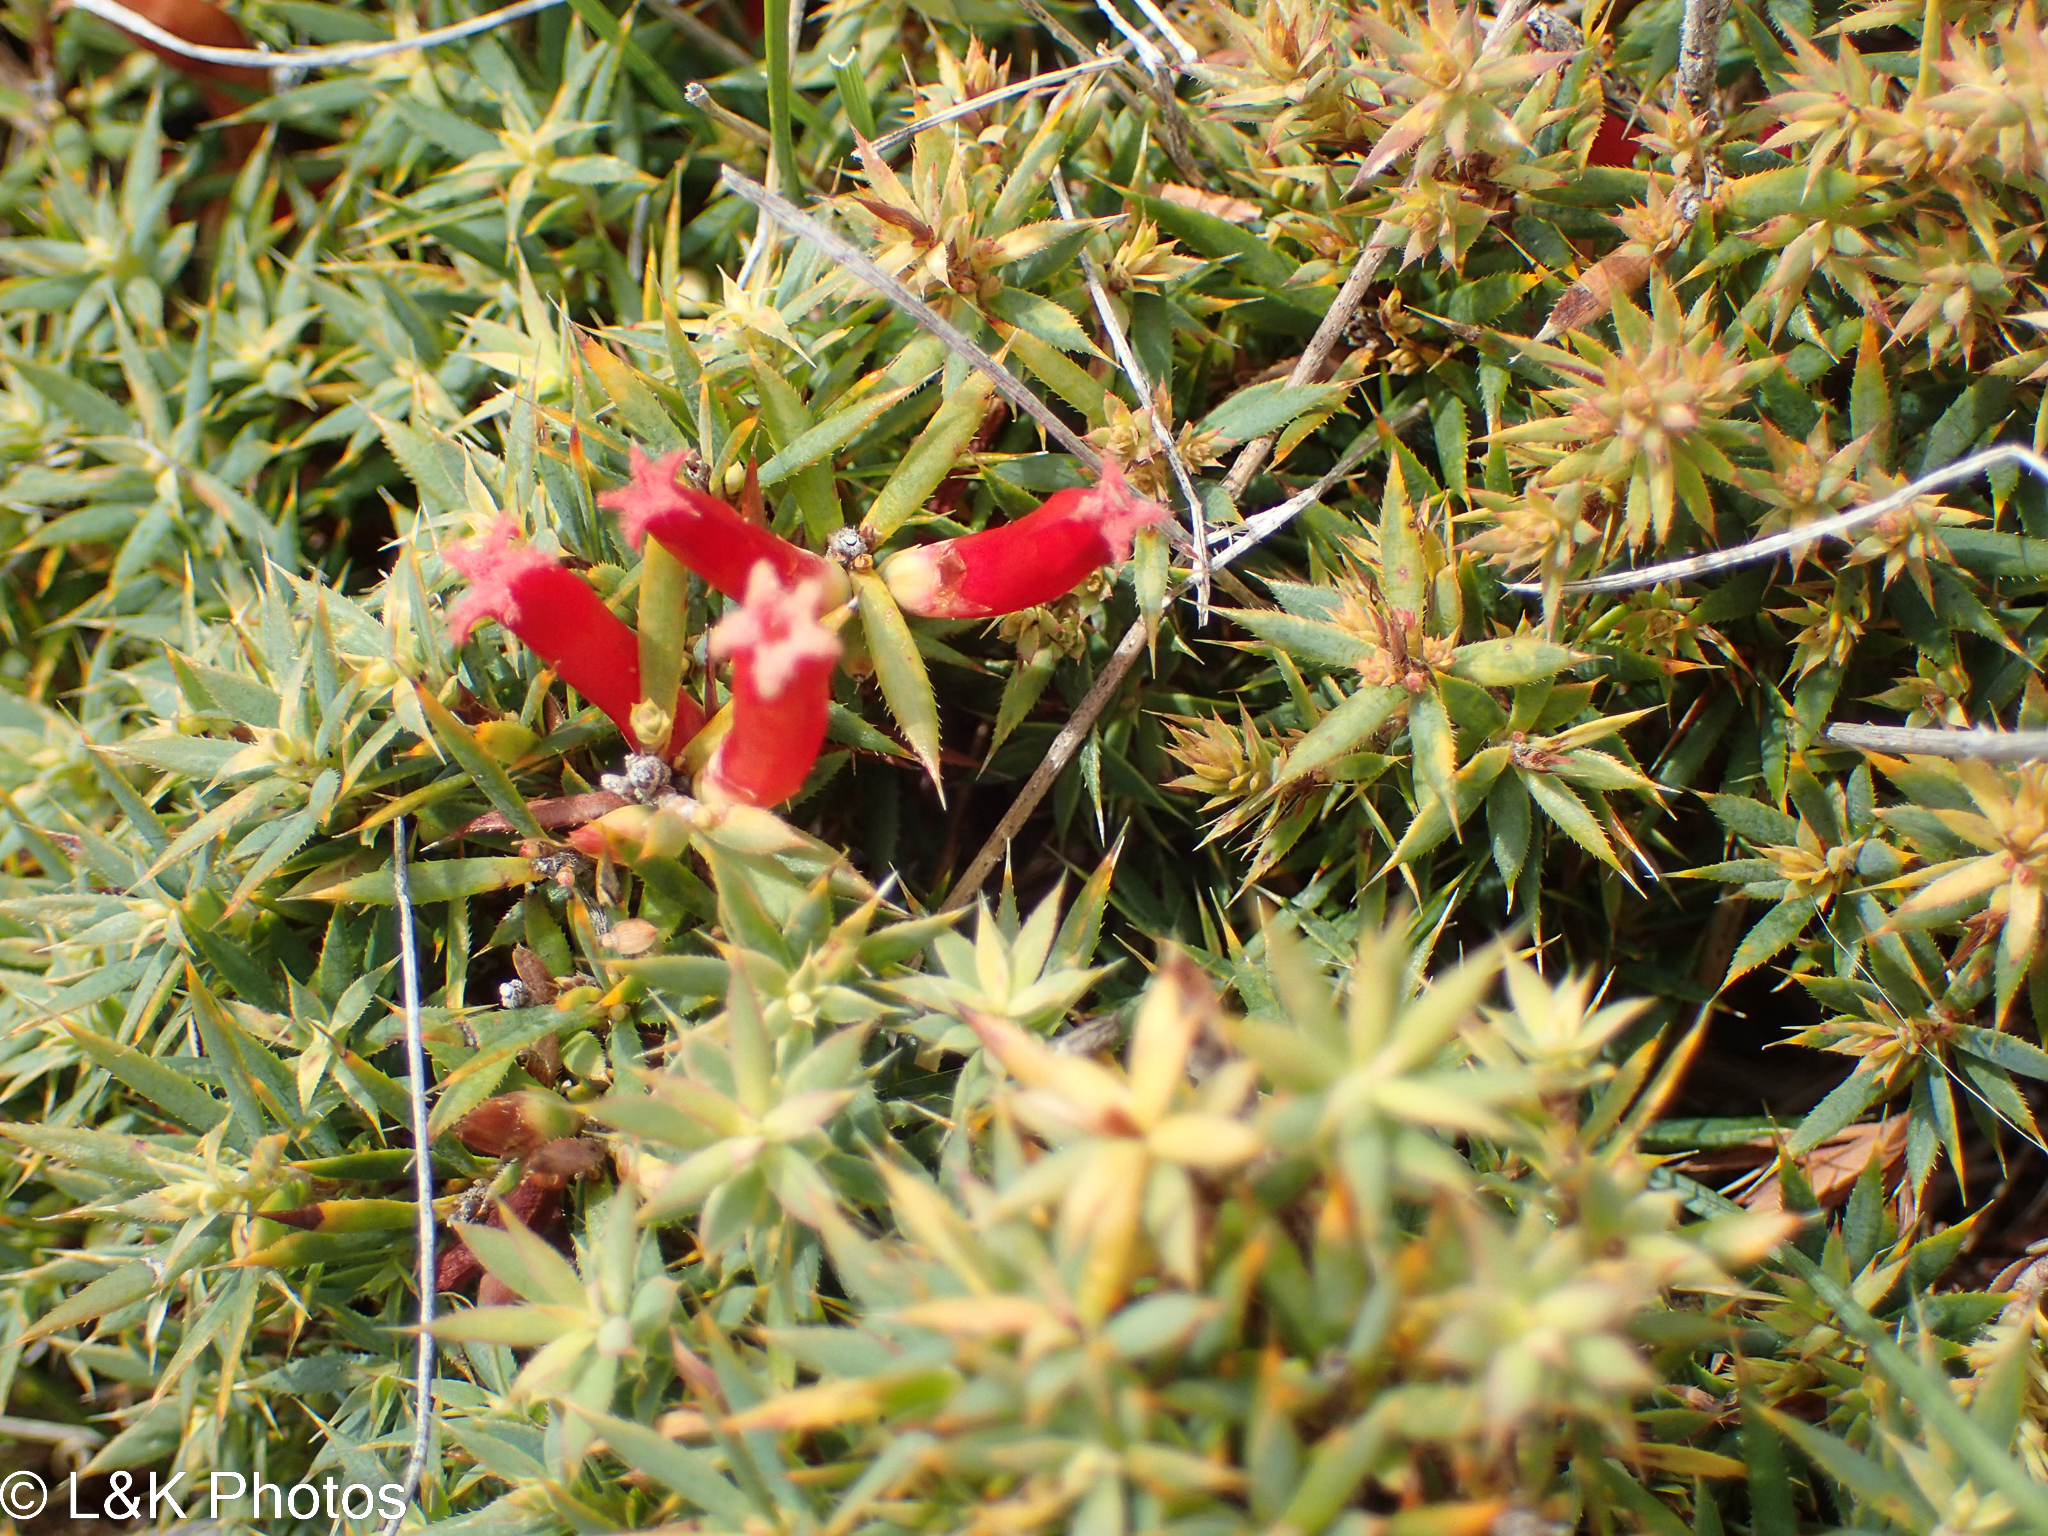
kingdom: Plantae
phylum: Tracheophyta
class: Magnoliopsida
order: Ericales
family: Ericaceae
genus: Styphelia
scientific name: Styphelia humifusa
